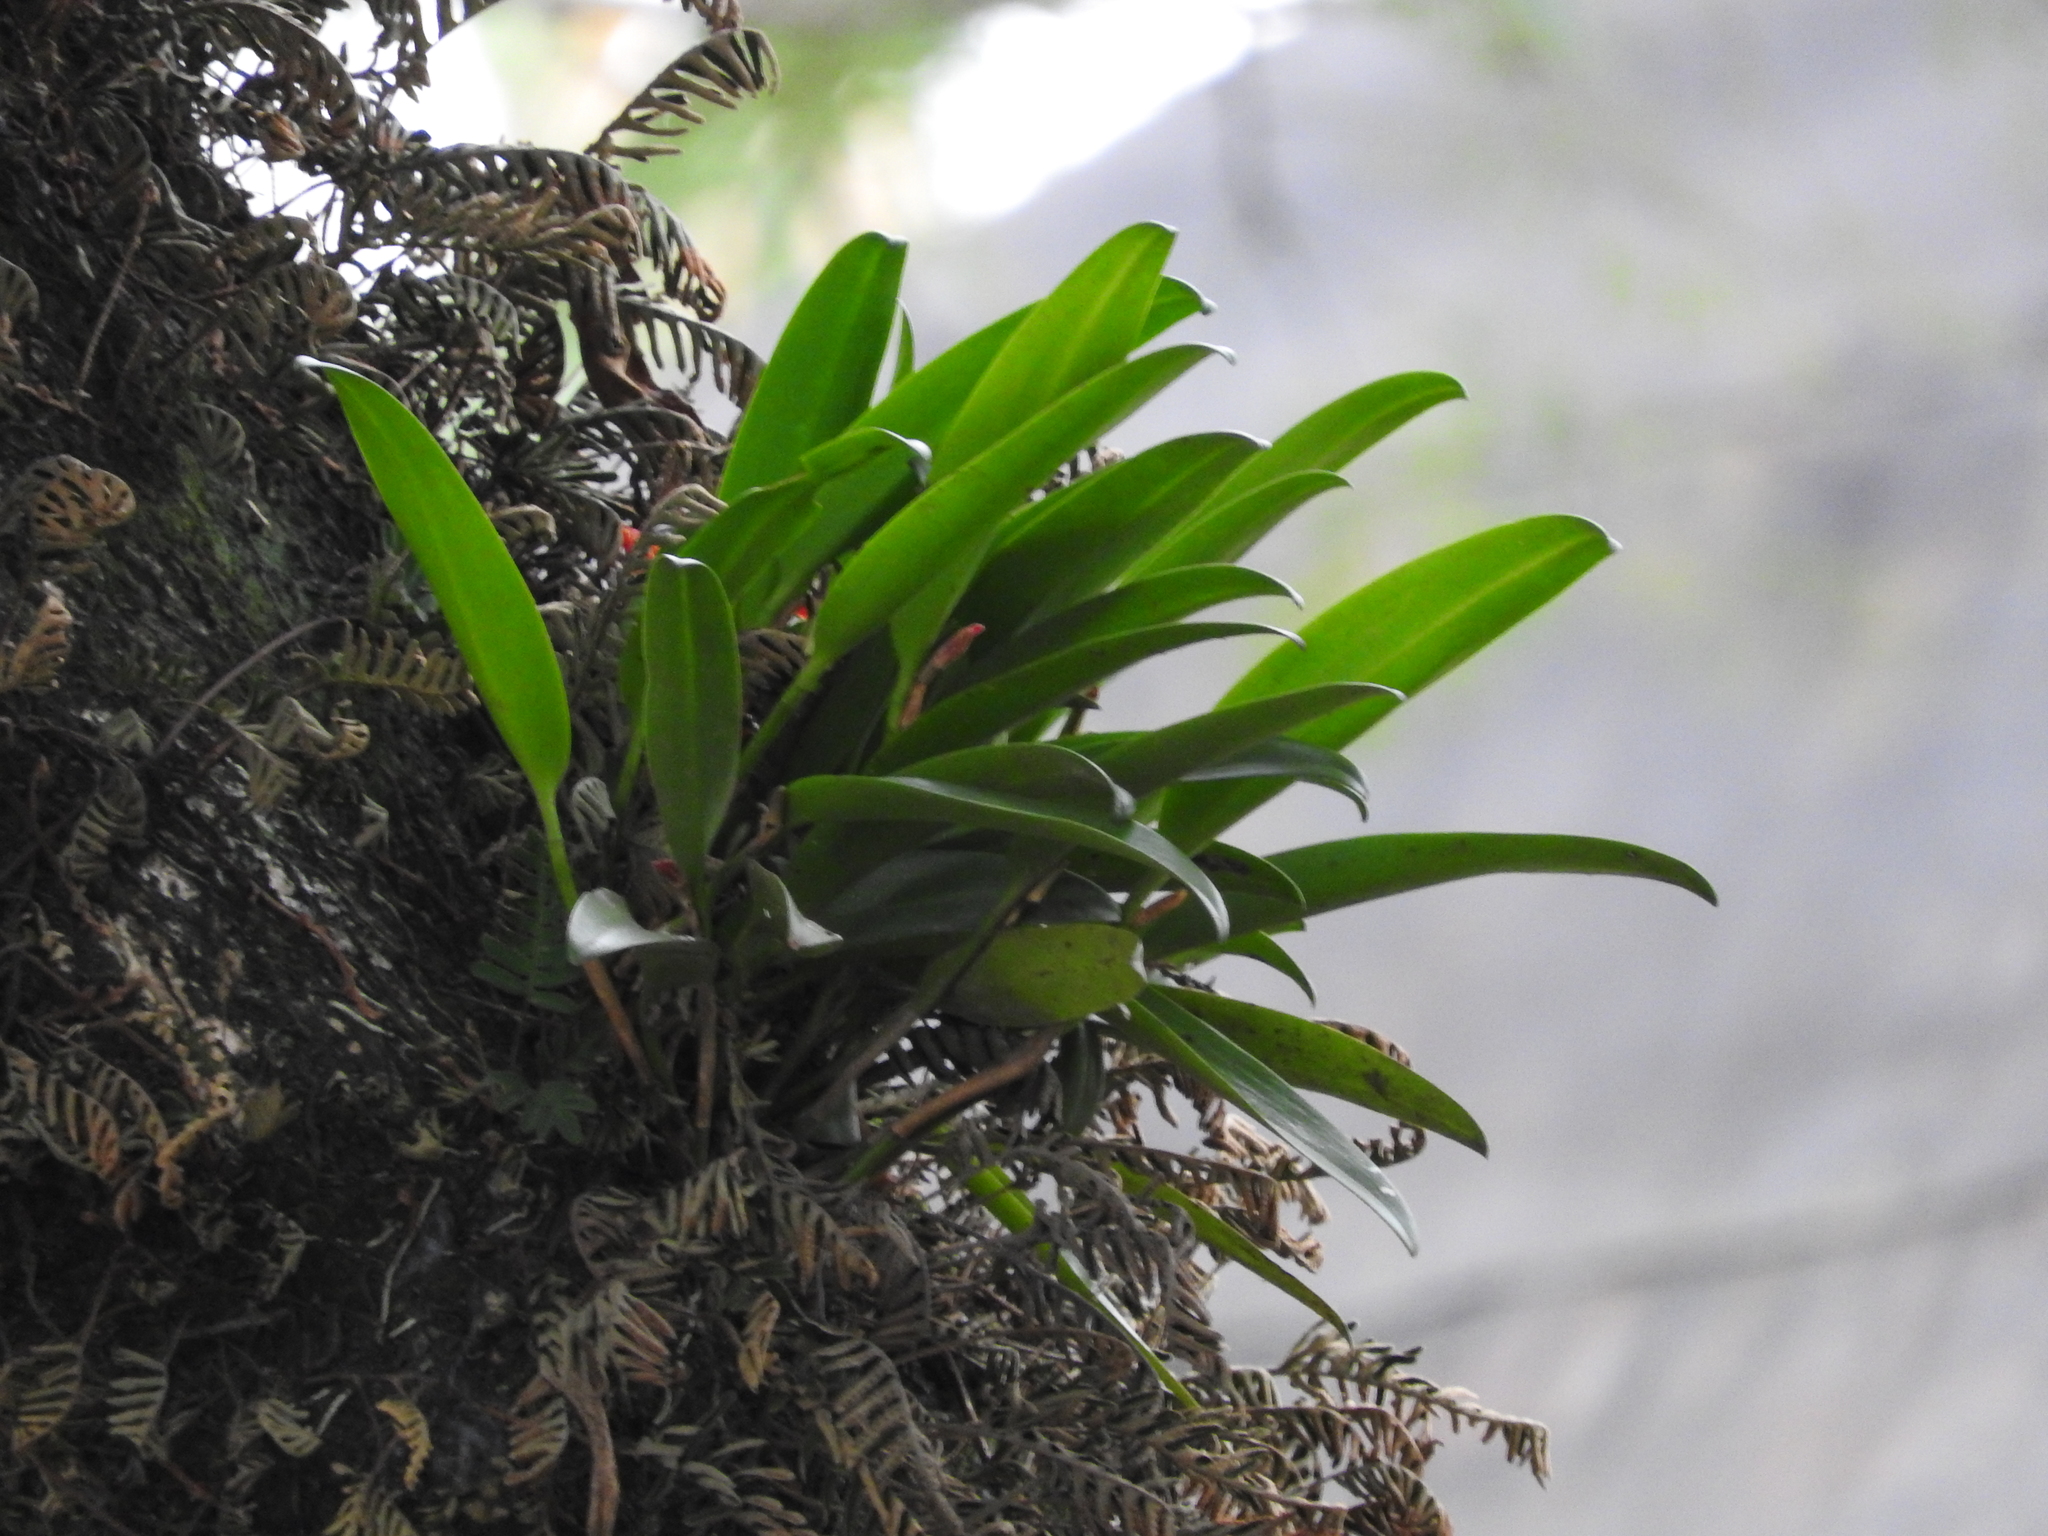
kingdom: Plantae
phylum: Tracheophyta
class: Liliopsida
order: Asparagales
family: Orchidaceae
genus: Restrepiella
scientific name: Restrepiella ophiocephala
